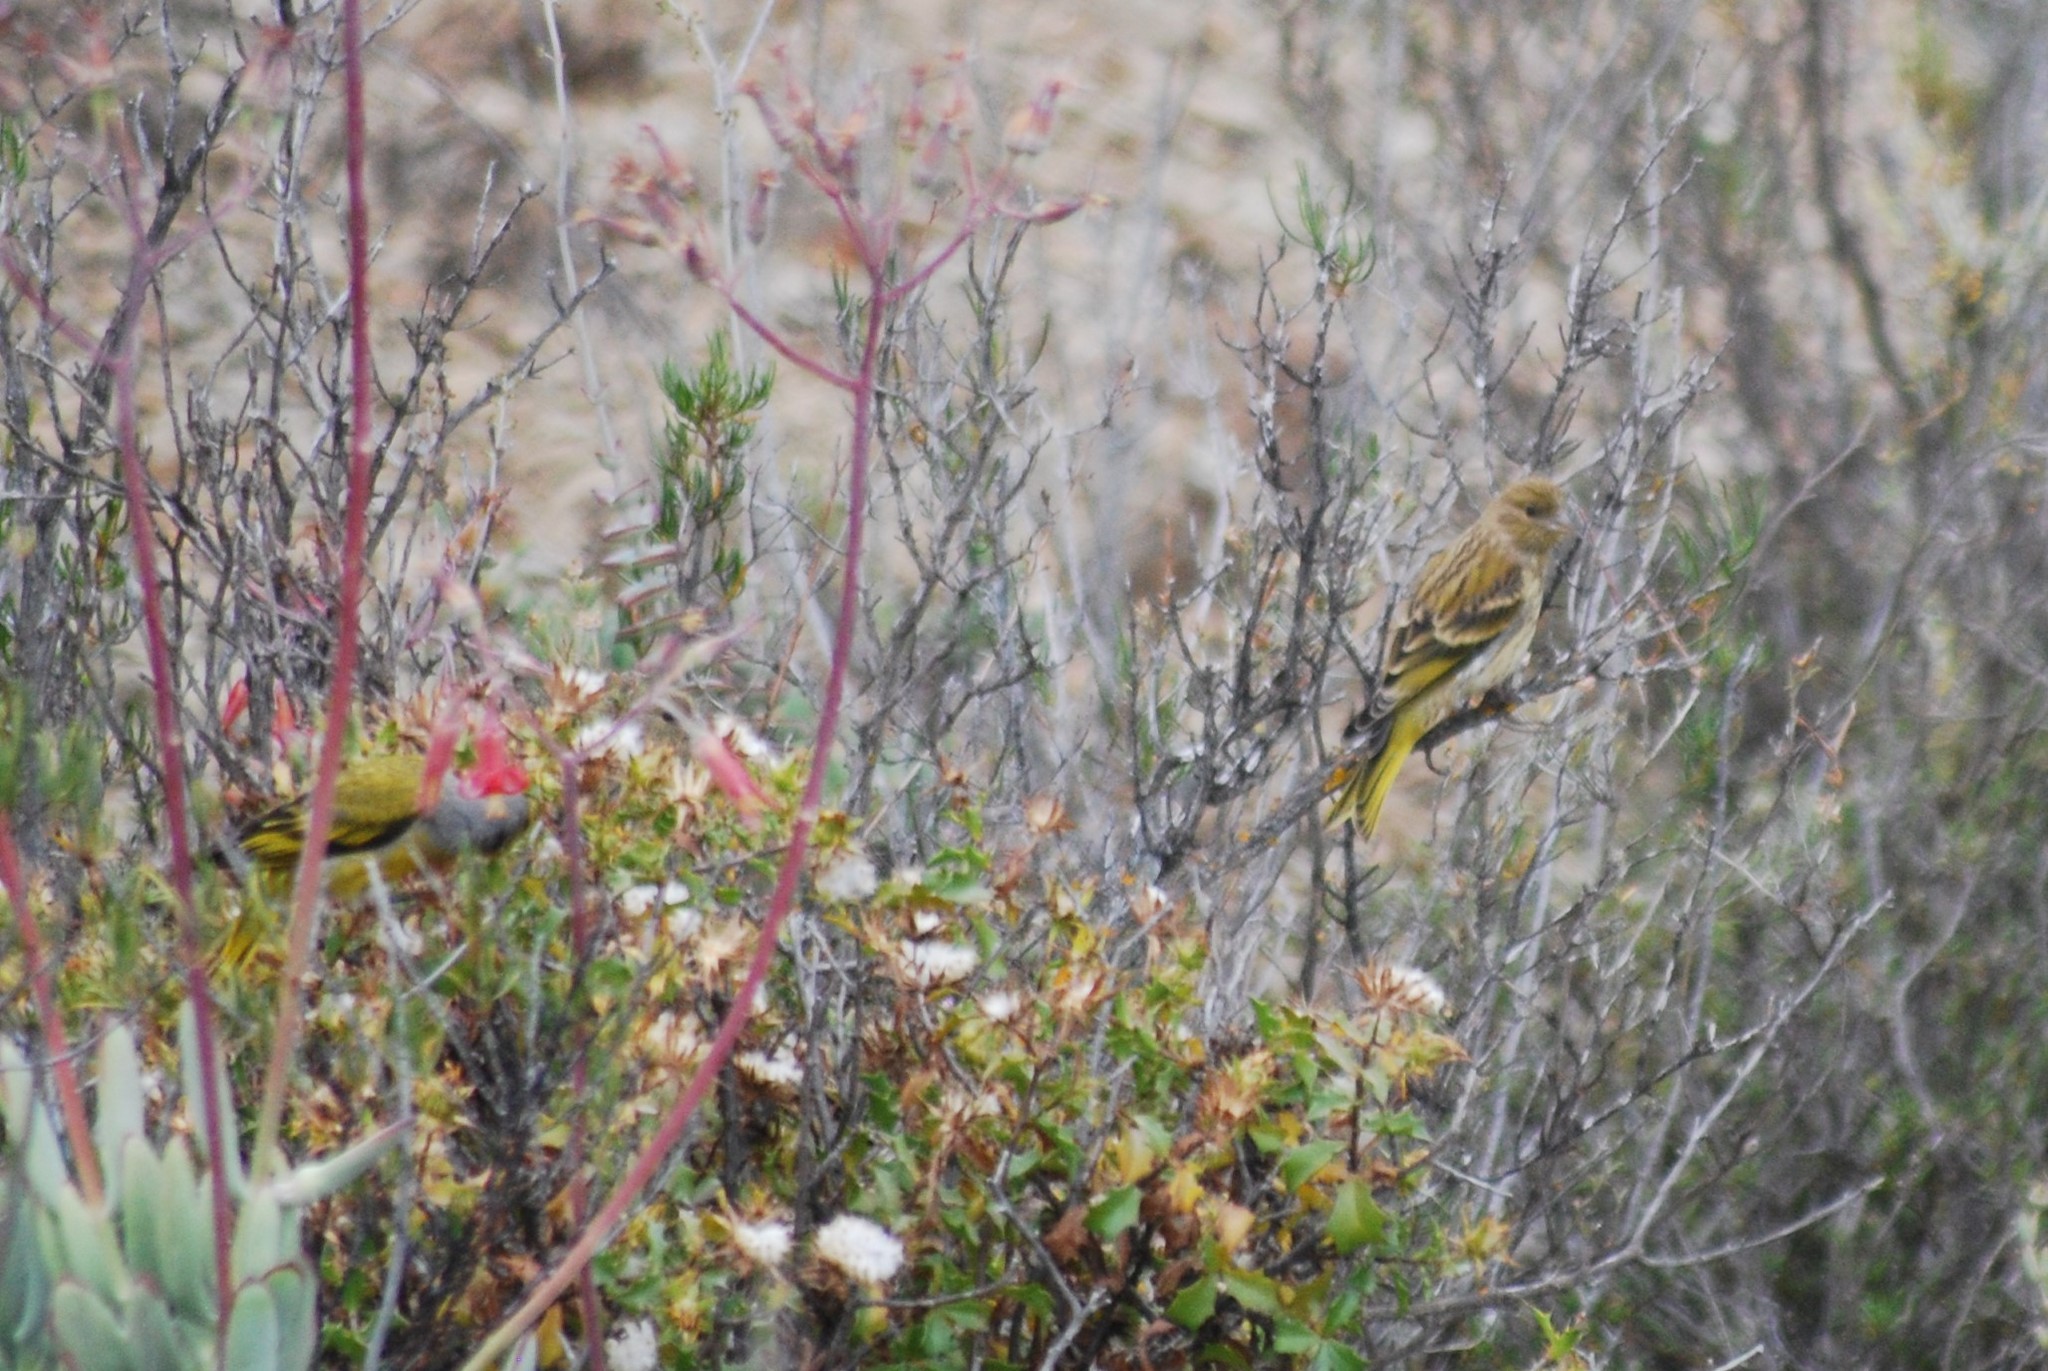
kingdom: Animalia
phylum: Chordata
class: Aves
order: Passeriformes
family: Fringillidae
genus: Serinus
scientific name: Serinus canicollis
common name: Cape canary
